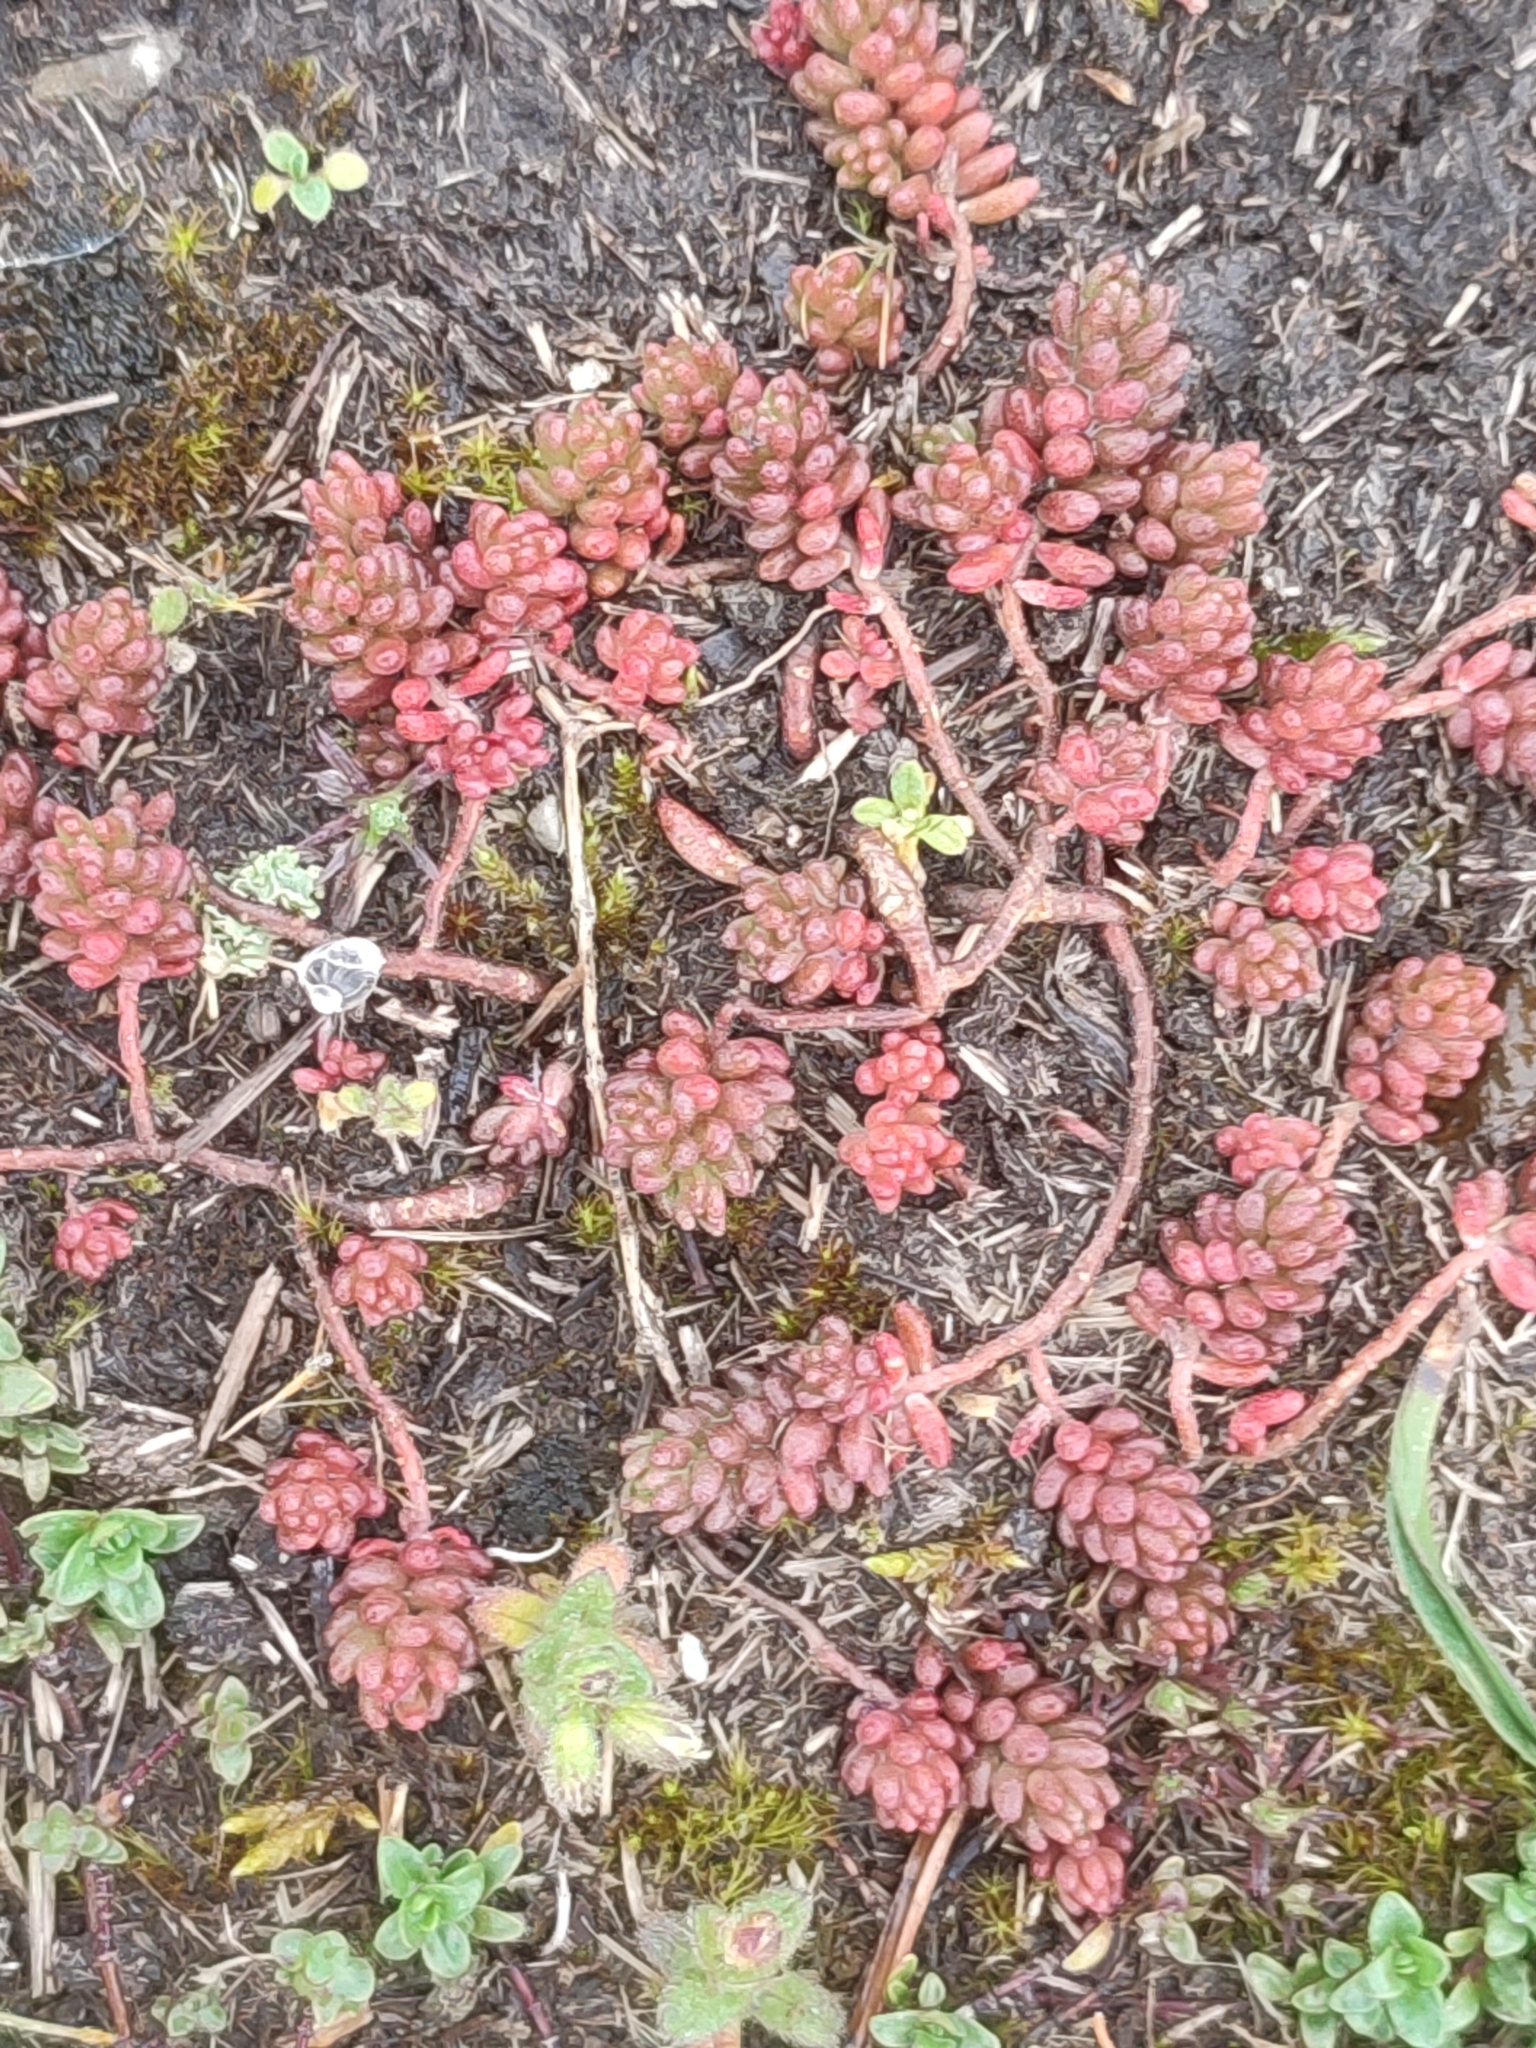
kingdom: Plantae
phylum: Tracheophyta
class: Magnoliopsida
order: Saxifragales
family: Crassulaceae
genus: Sedum
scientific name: Sedum album
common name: White stonecrop
